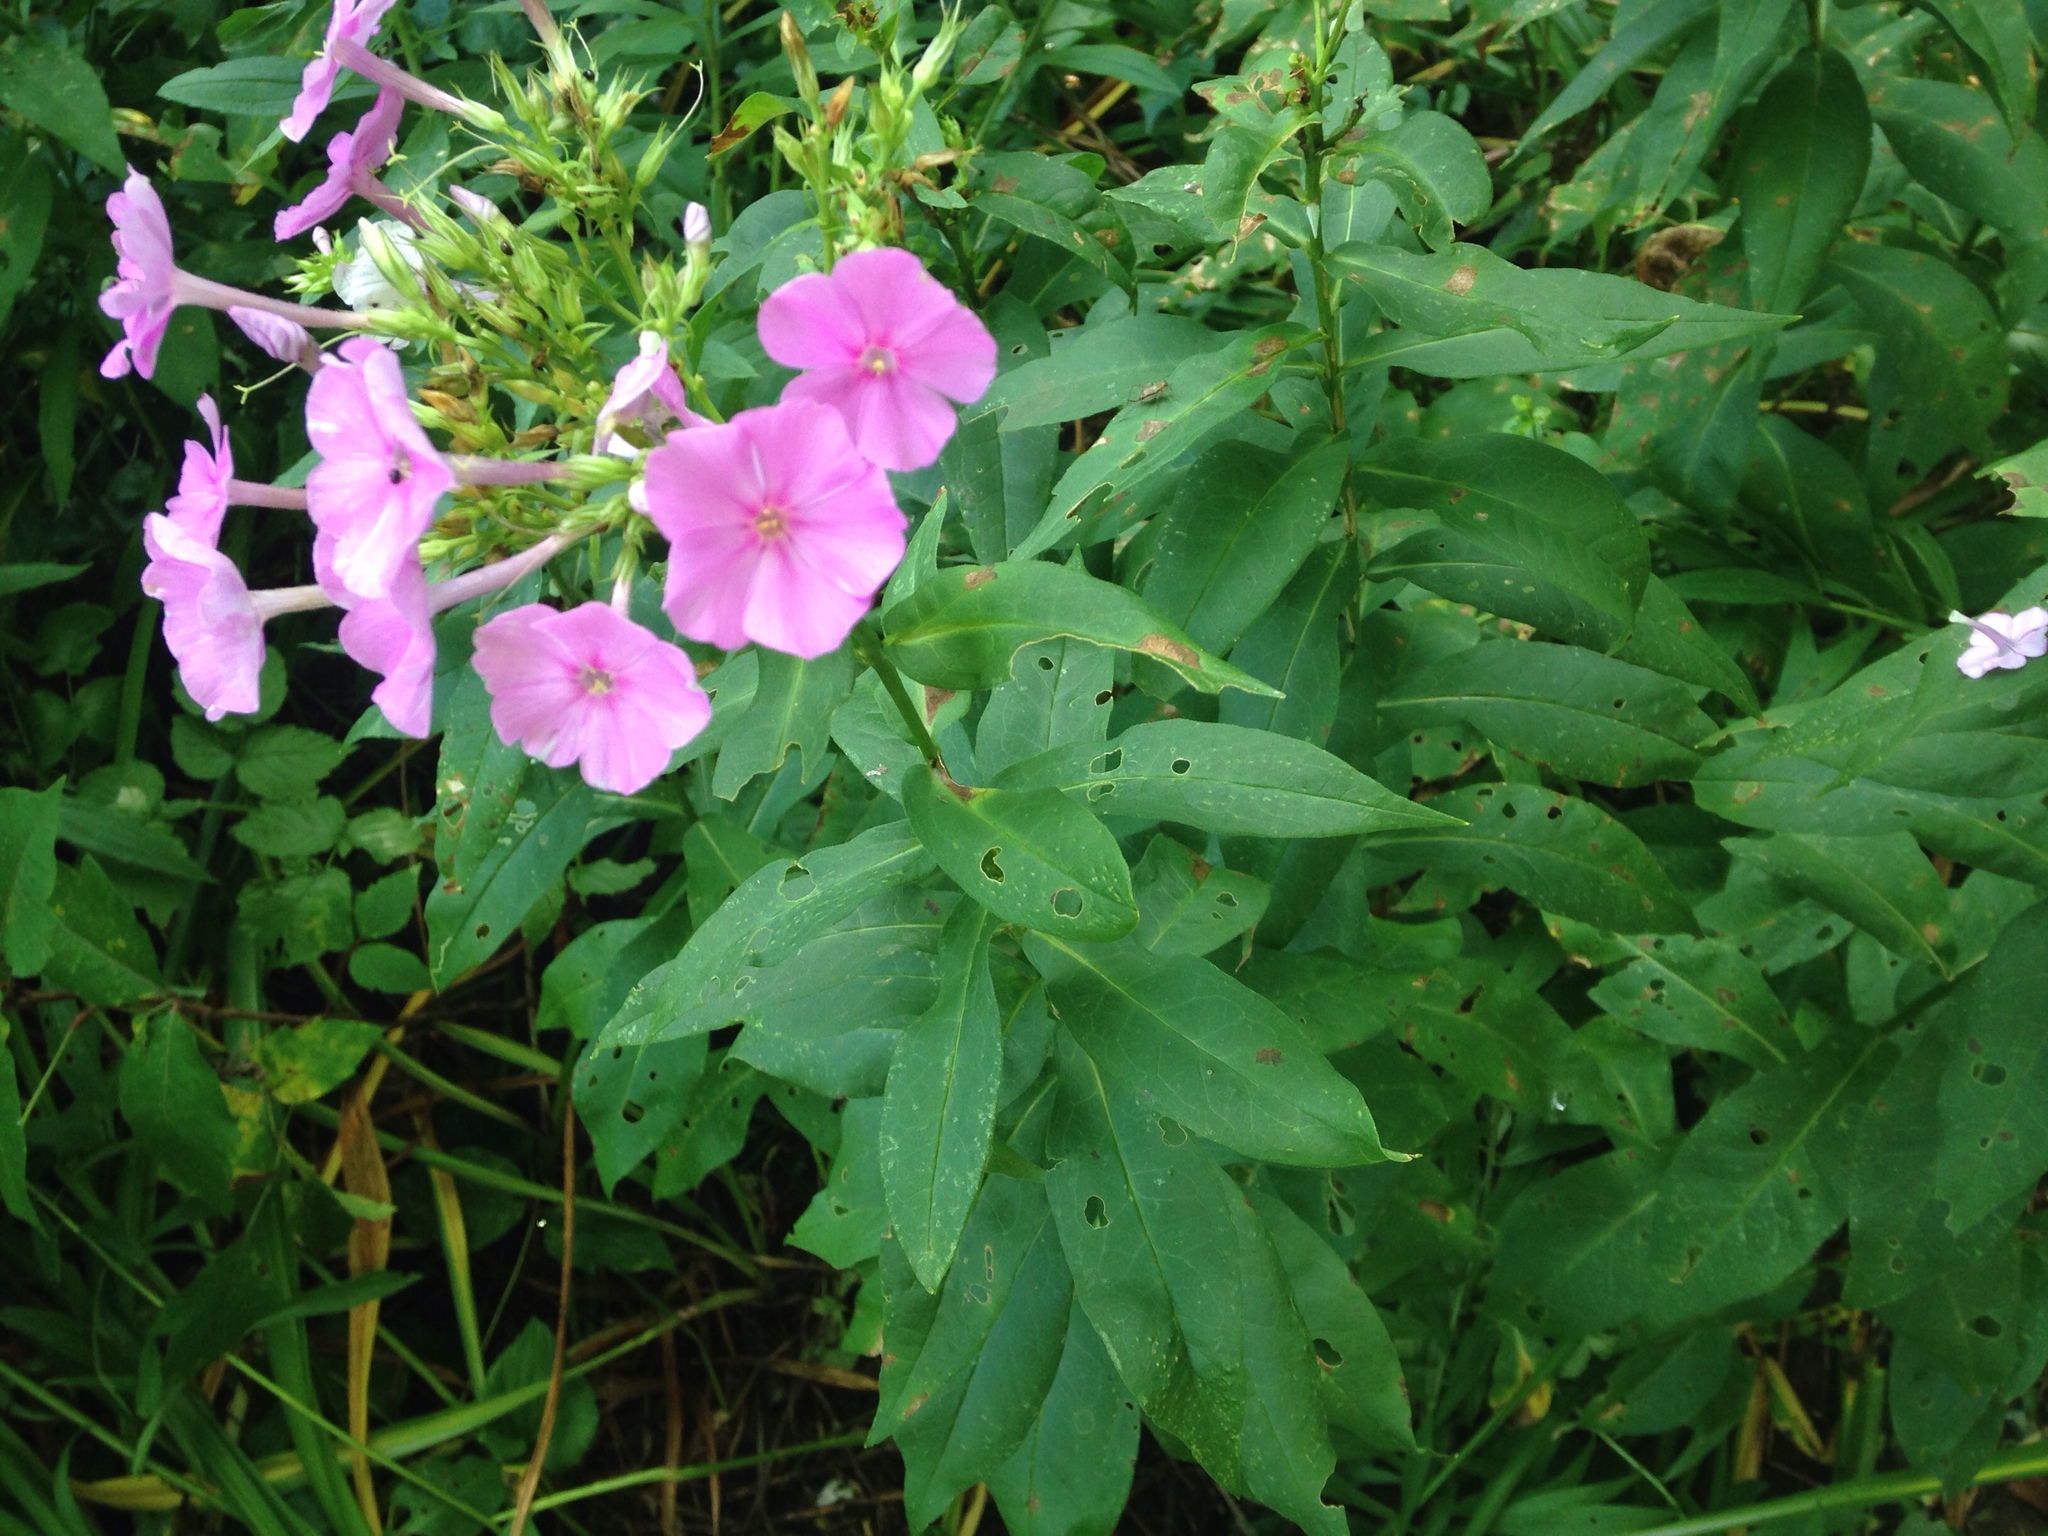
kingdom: Plantae
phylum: Tracheophyta
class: Magnoliopsida
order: Ericales
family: Polemoniaceae
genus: Phlox
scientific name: Phlox paniculata
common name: Fall phlox
